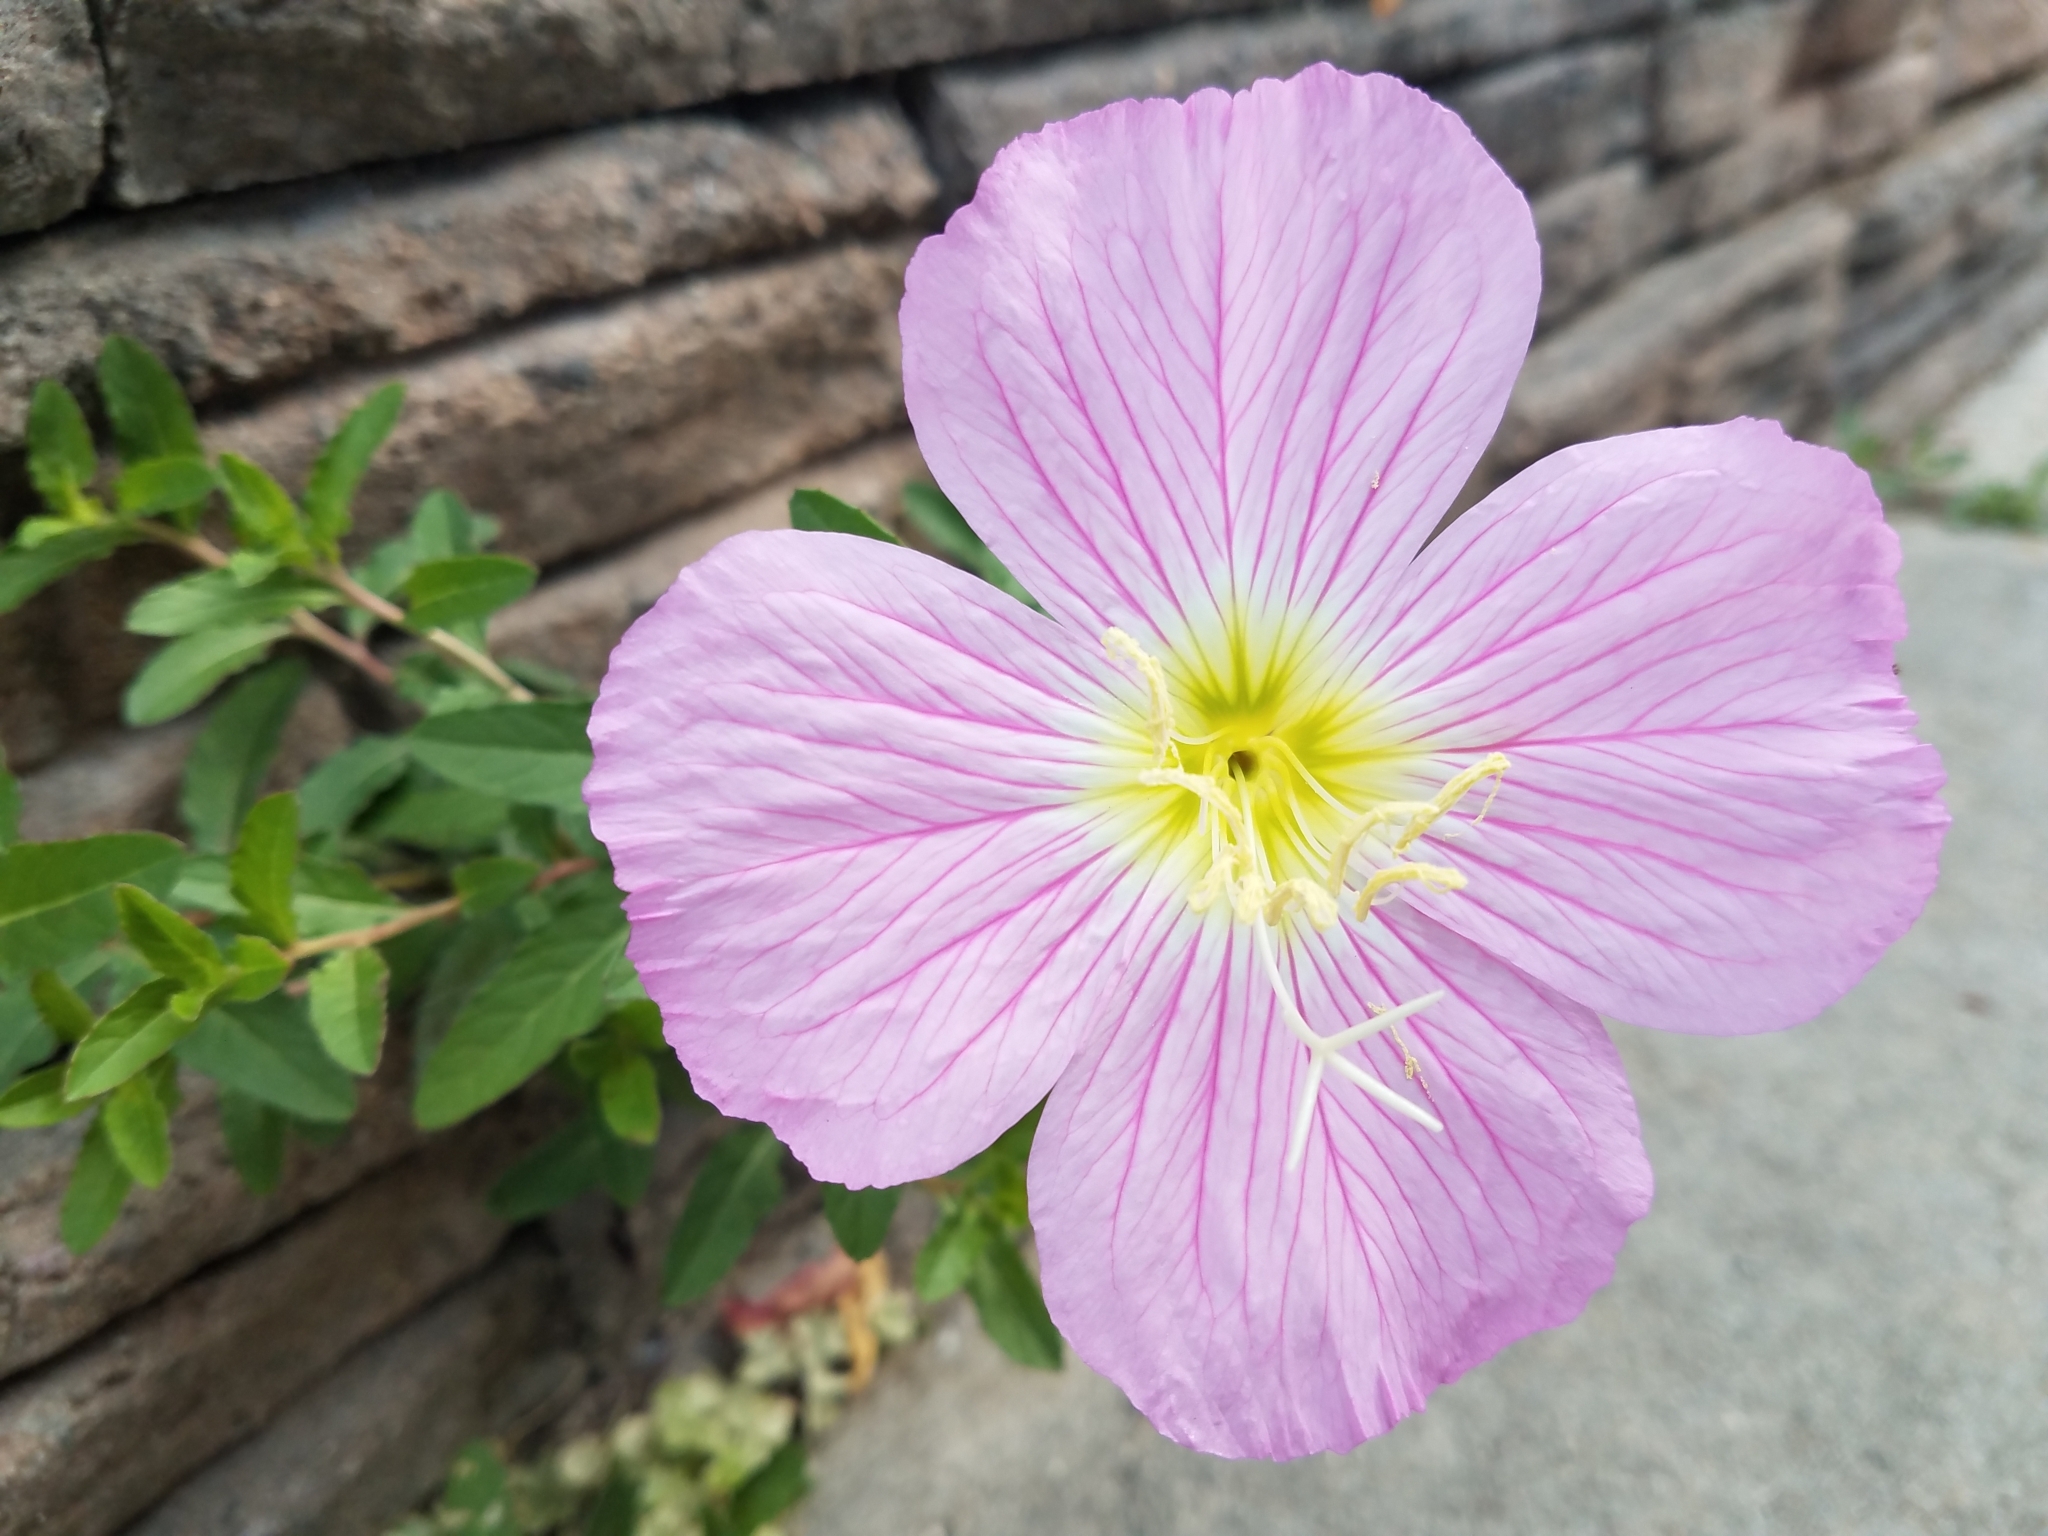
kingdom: Plantae
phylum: Tracheophyta
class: Magnoliopsida
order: Myrtales
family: Onagraceae
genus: Oenothera
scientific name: Oenothera speciosa
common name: White evening-primrose
